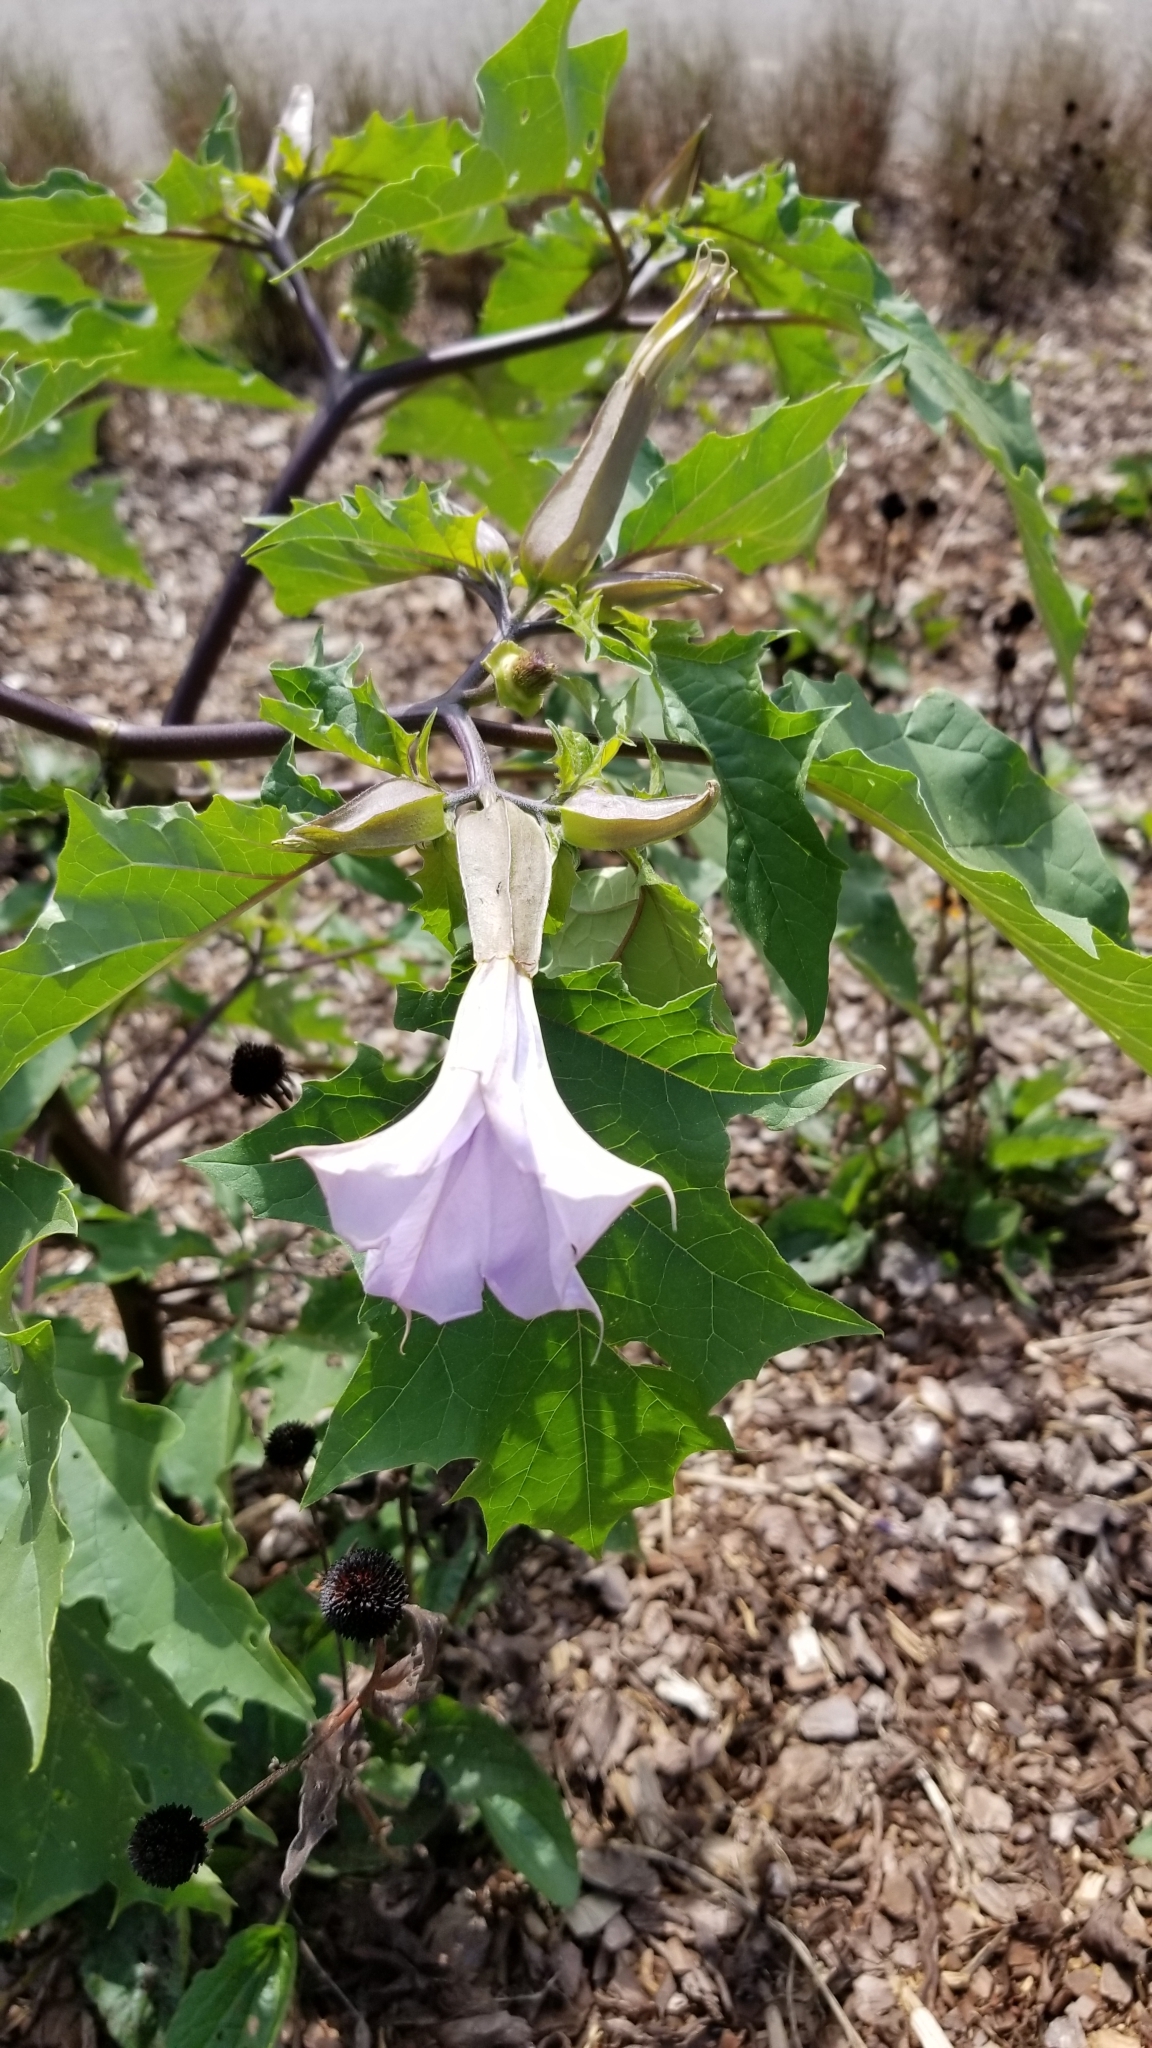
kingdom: Plantae
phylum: Tracheophyta
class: Magnoliopsida
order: Solanales
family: Solanaceae
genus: Datura
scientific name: Datura stramonium
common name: Thorn-apple
